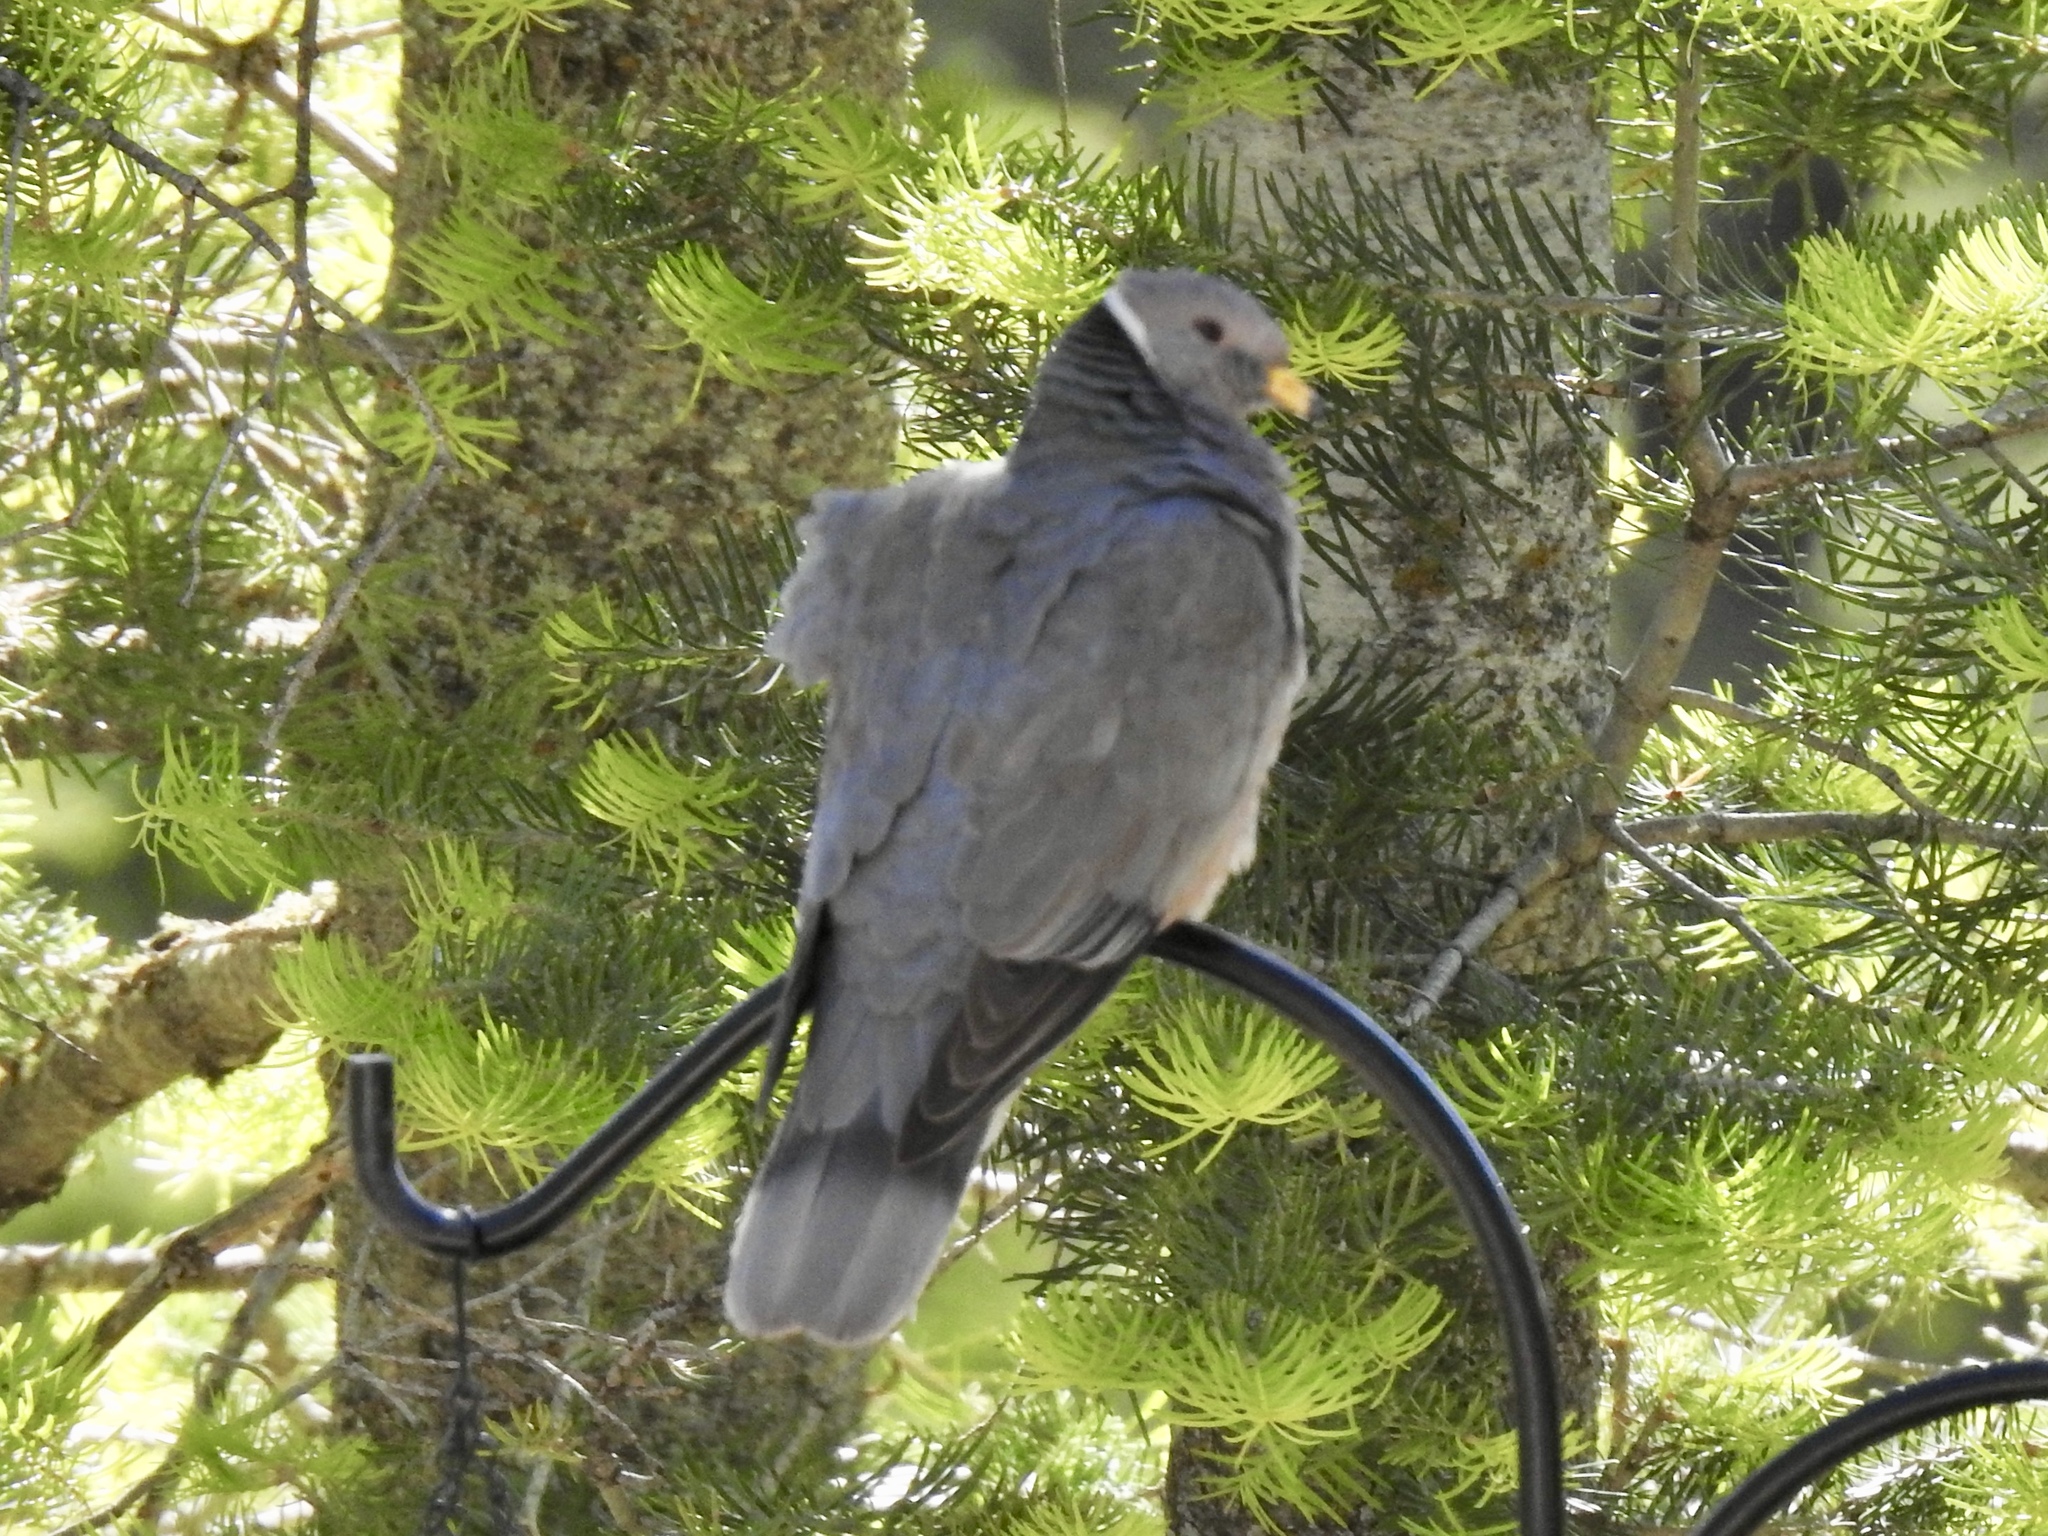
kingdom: Animalia
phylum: Chordata
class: Aves
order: Columbiformes
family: Columbidae
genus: Patagioenas
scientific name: Patagioenas fasciata
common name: Band-tailed pigeon
